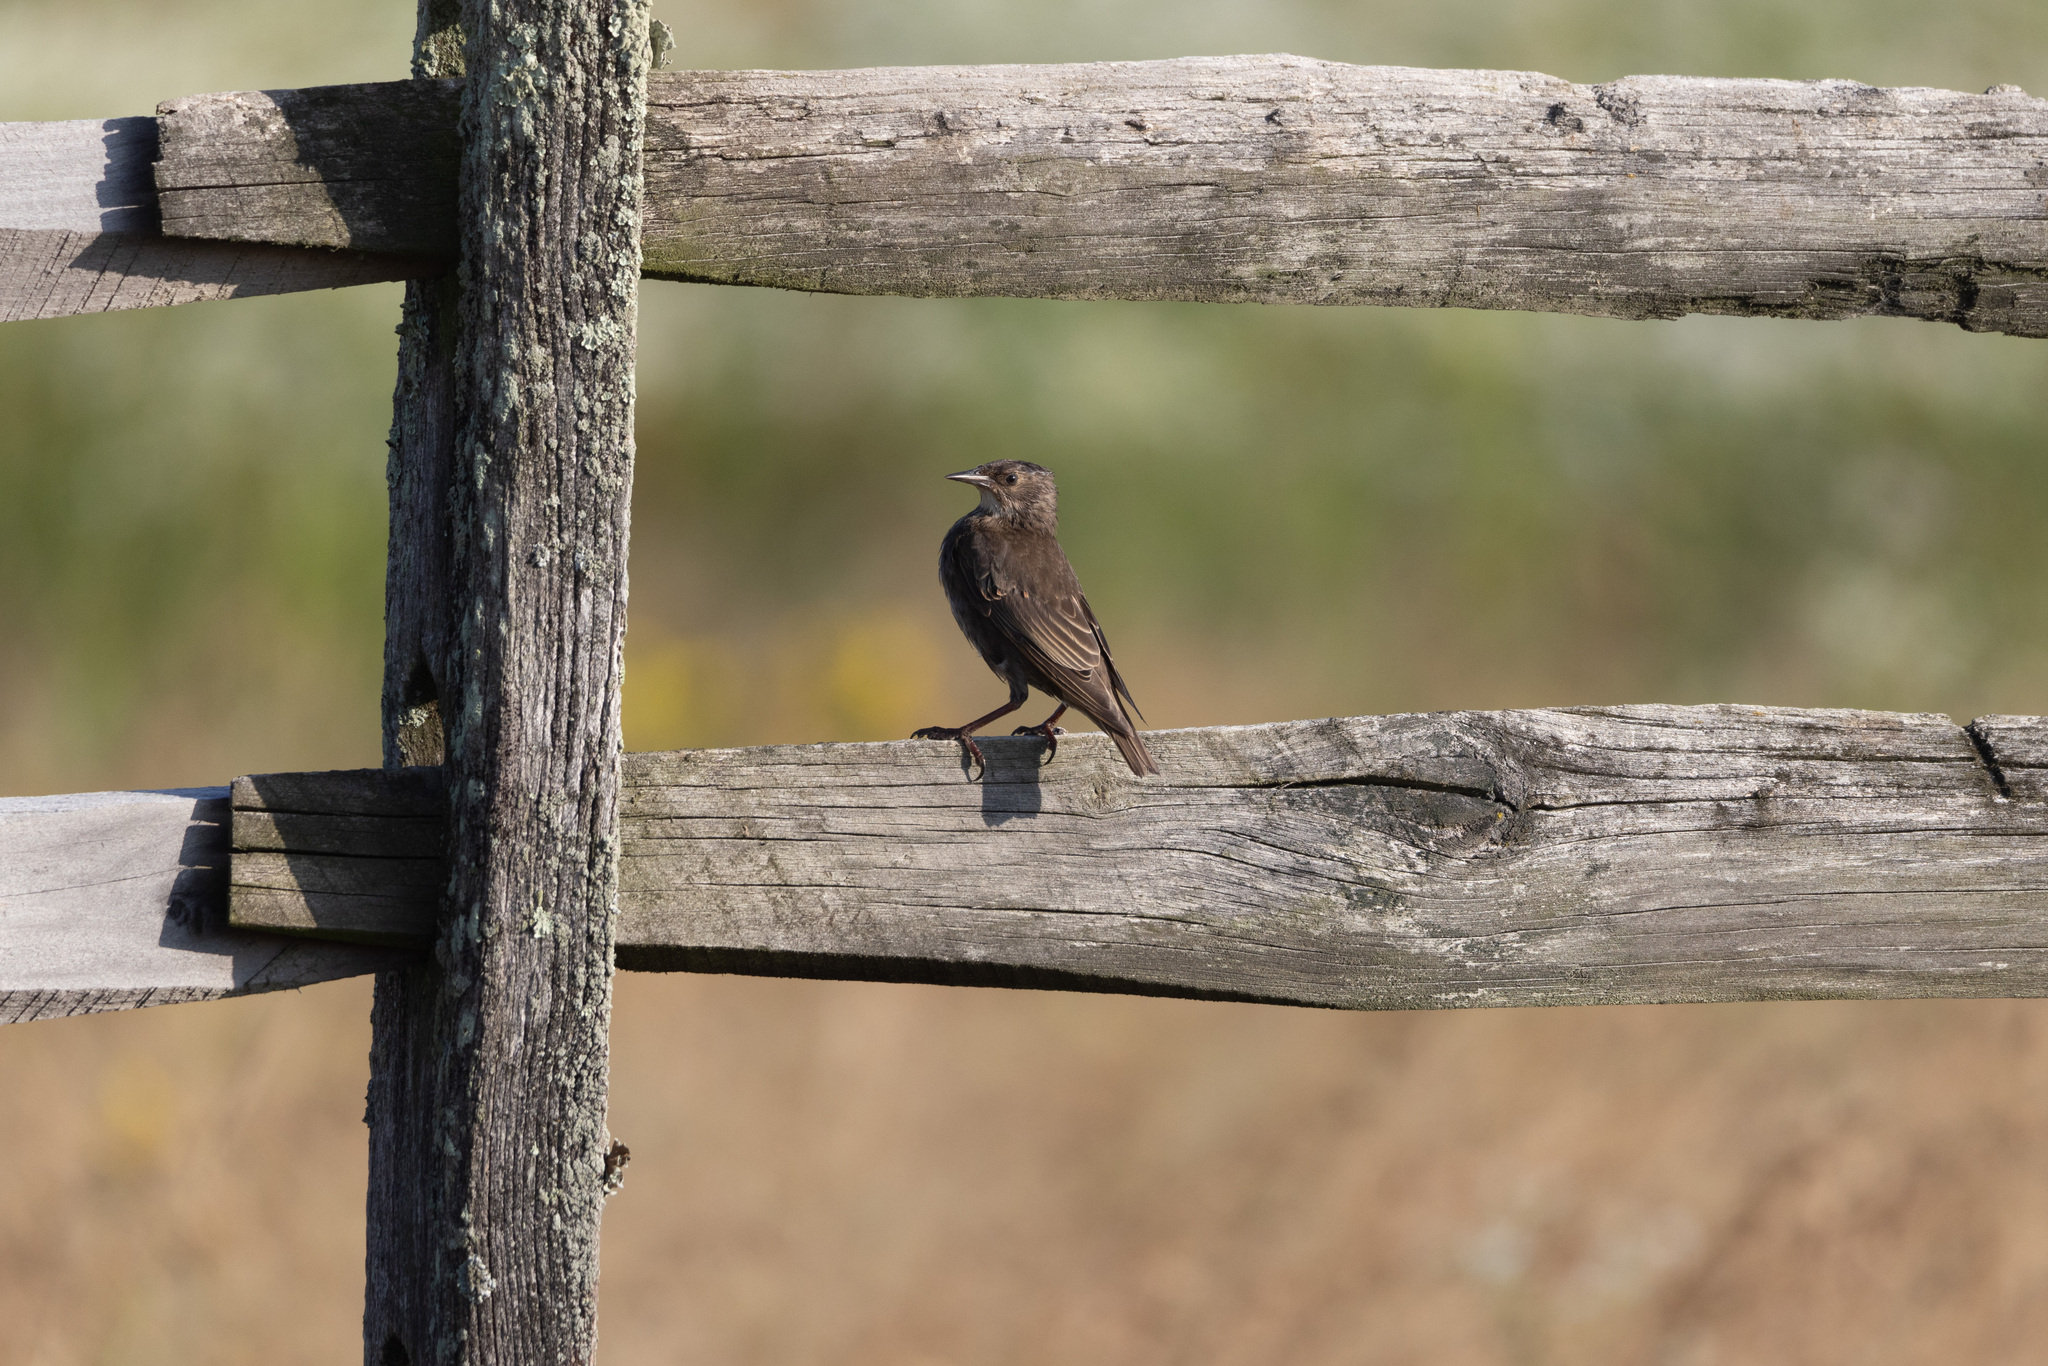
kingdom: Animalia
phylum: Chordata
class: Aves
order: Passeriformes
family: Sturnidae
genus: Sturnus
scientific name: Sturnus vulgaris
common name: Common starling
